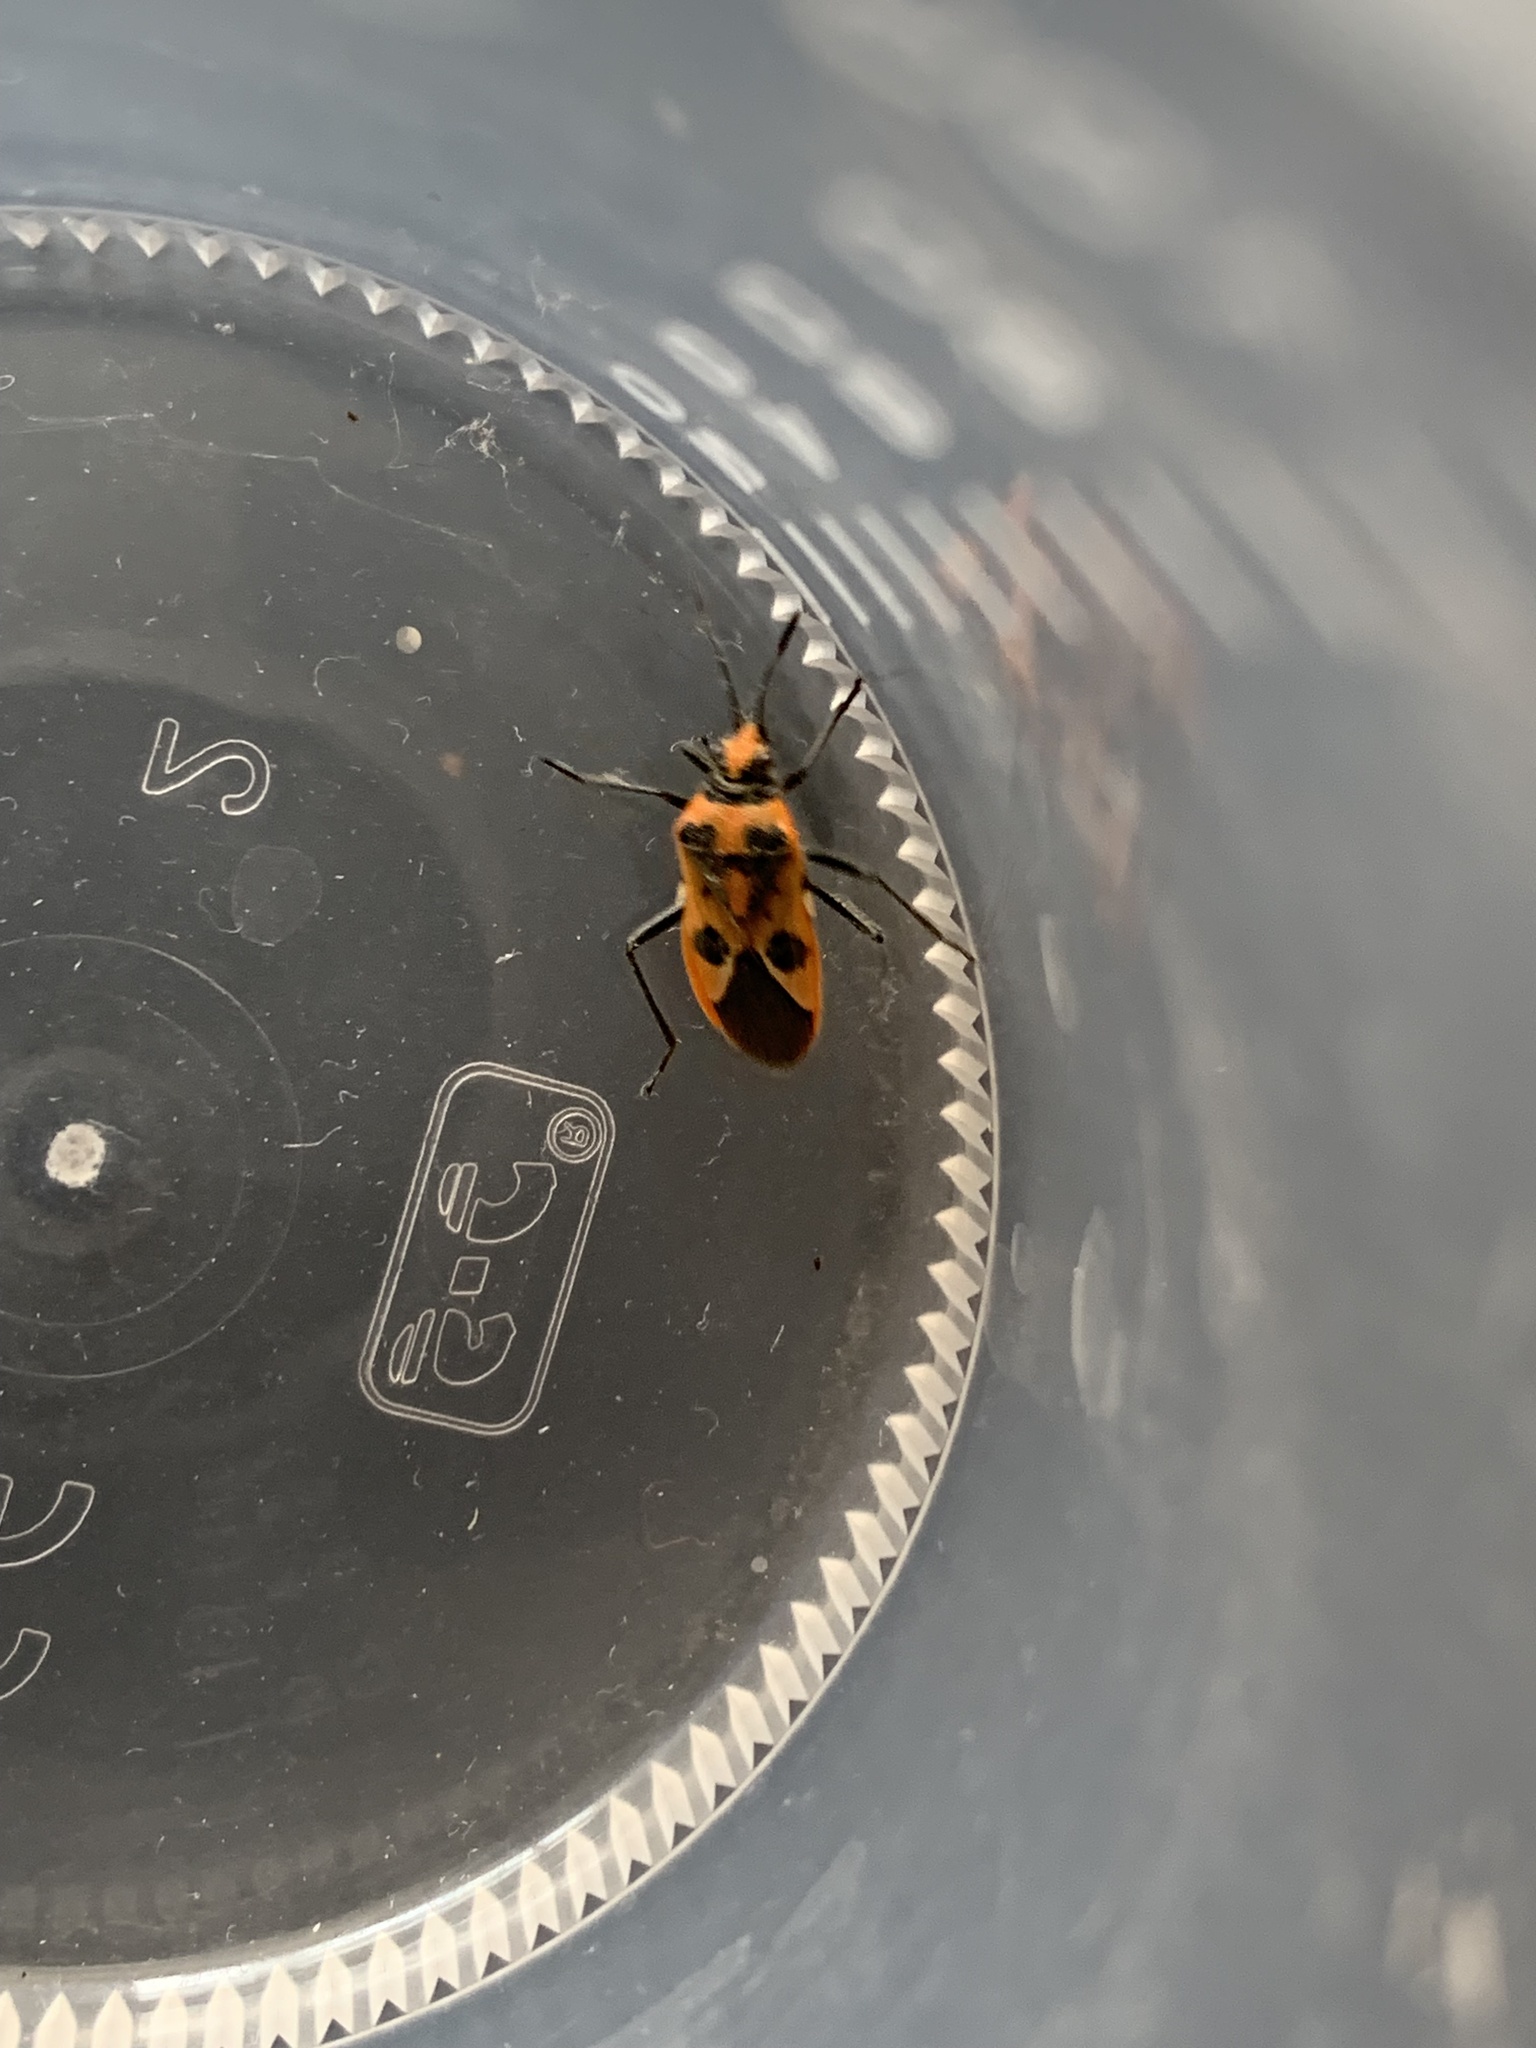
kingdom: Animalia
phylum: Arthropoda
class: Insecta
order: Hemiptera
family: Rhopalidae
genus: Corizus
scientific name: Corizus hyoscyami
